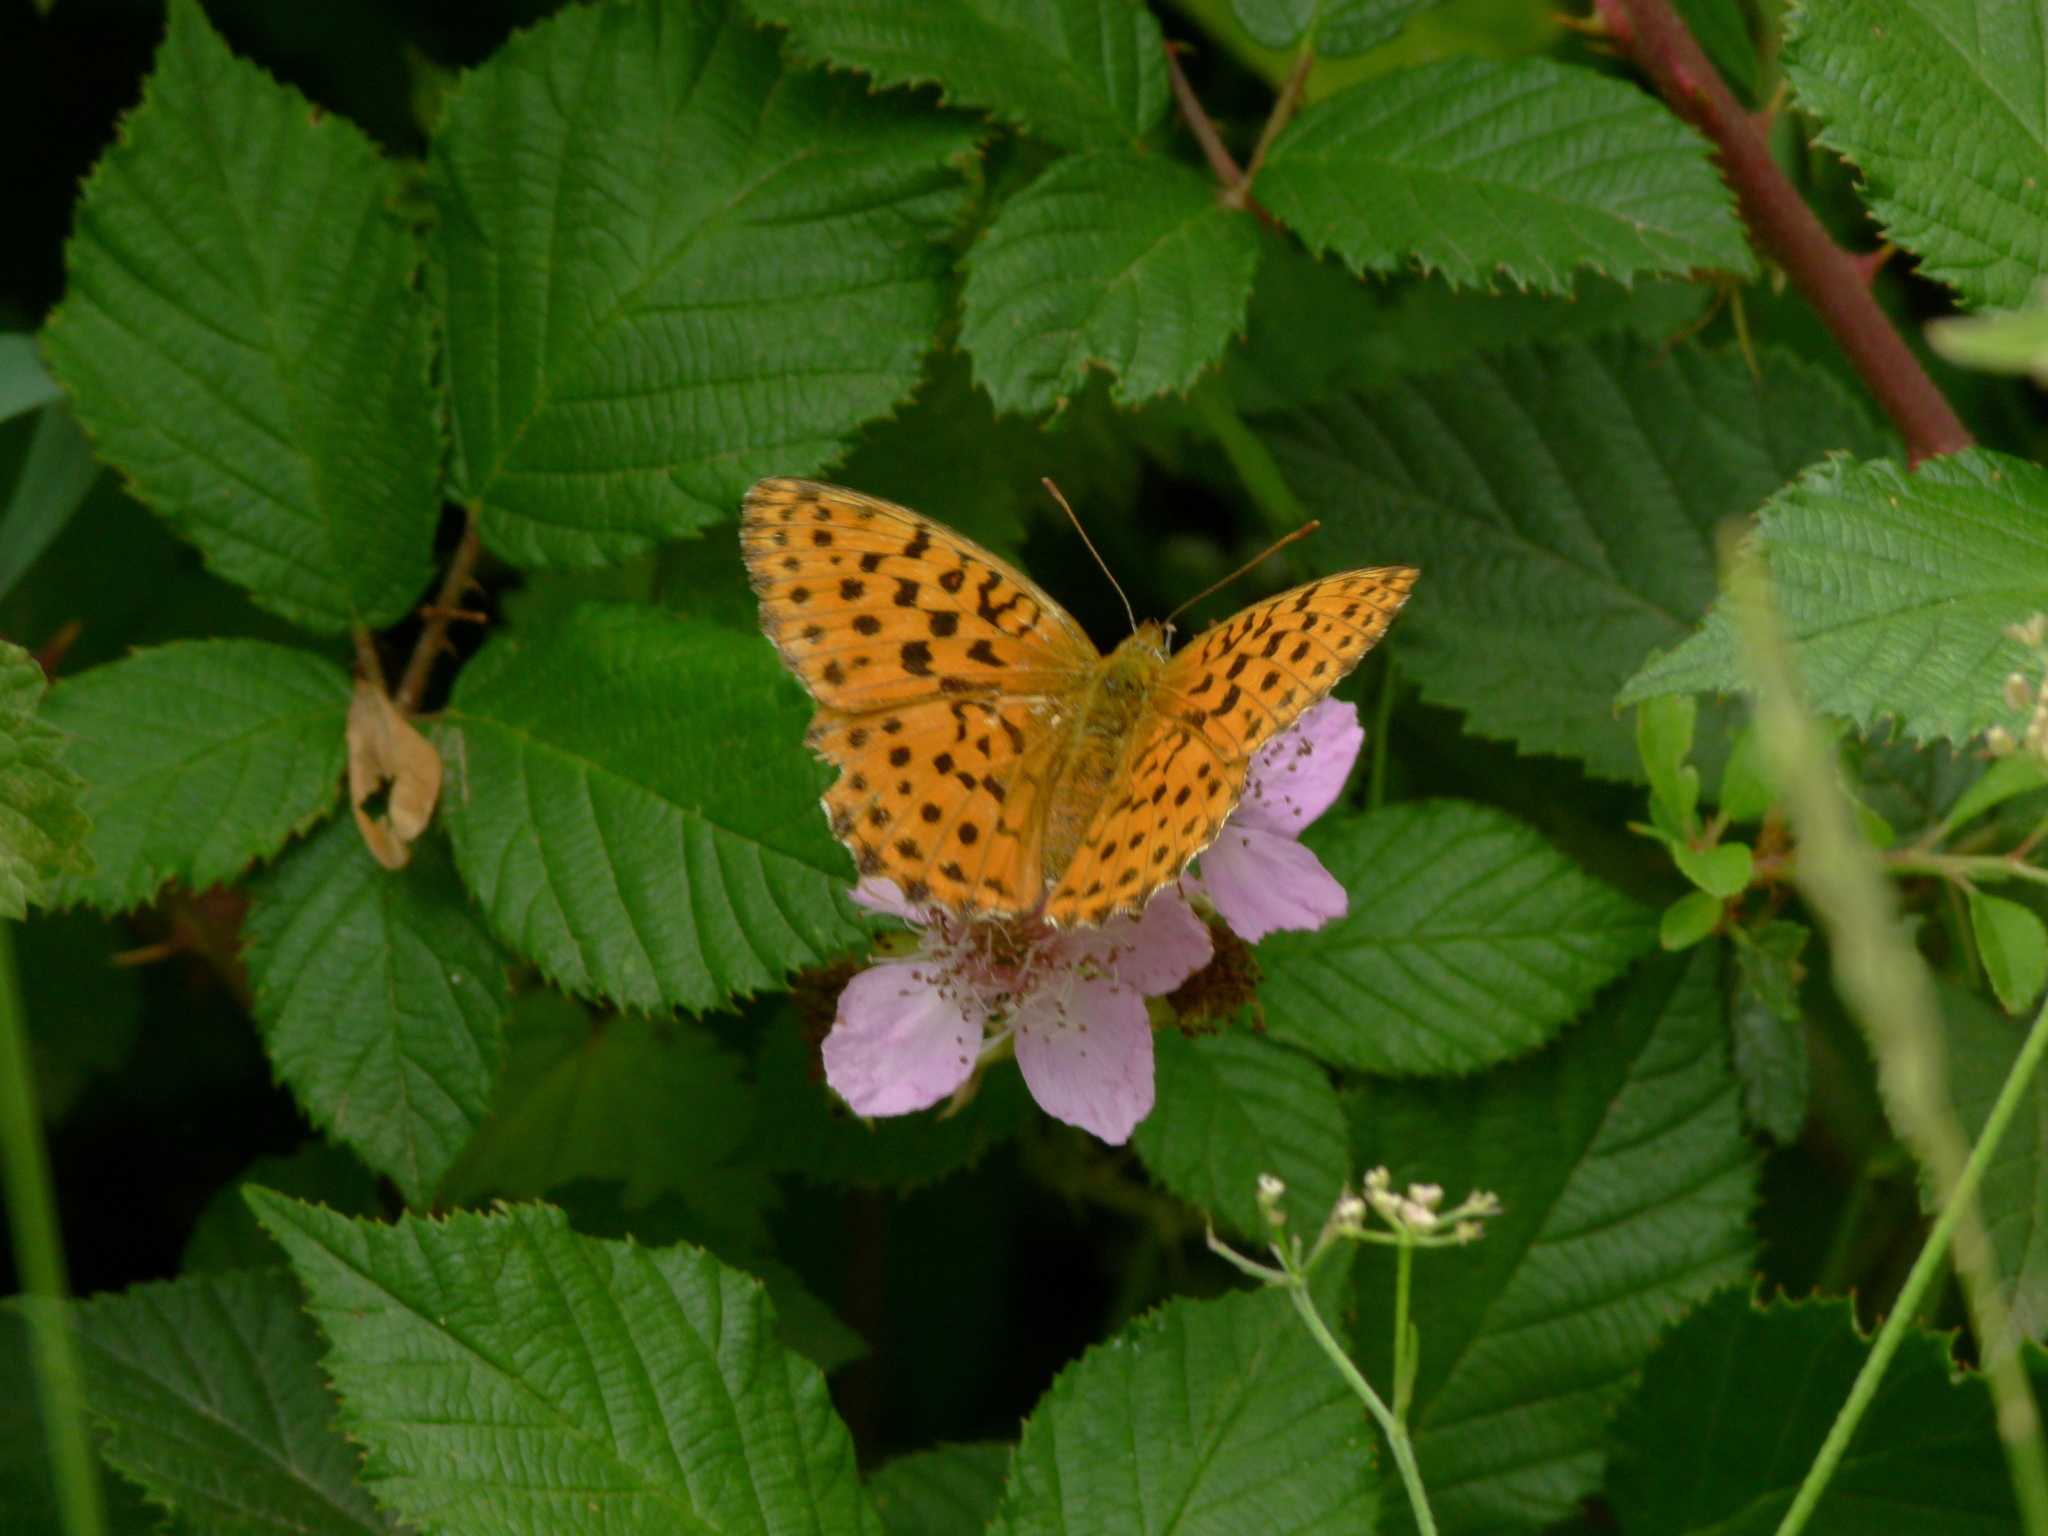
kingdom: Animalia
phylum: Arthropoda
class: Insecta
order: Lepidoptera
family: Nymphalidae
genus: Brenthis
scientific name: Brenthis daphne
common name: Marbled fritillary
